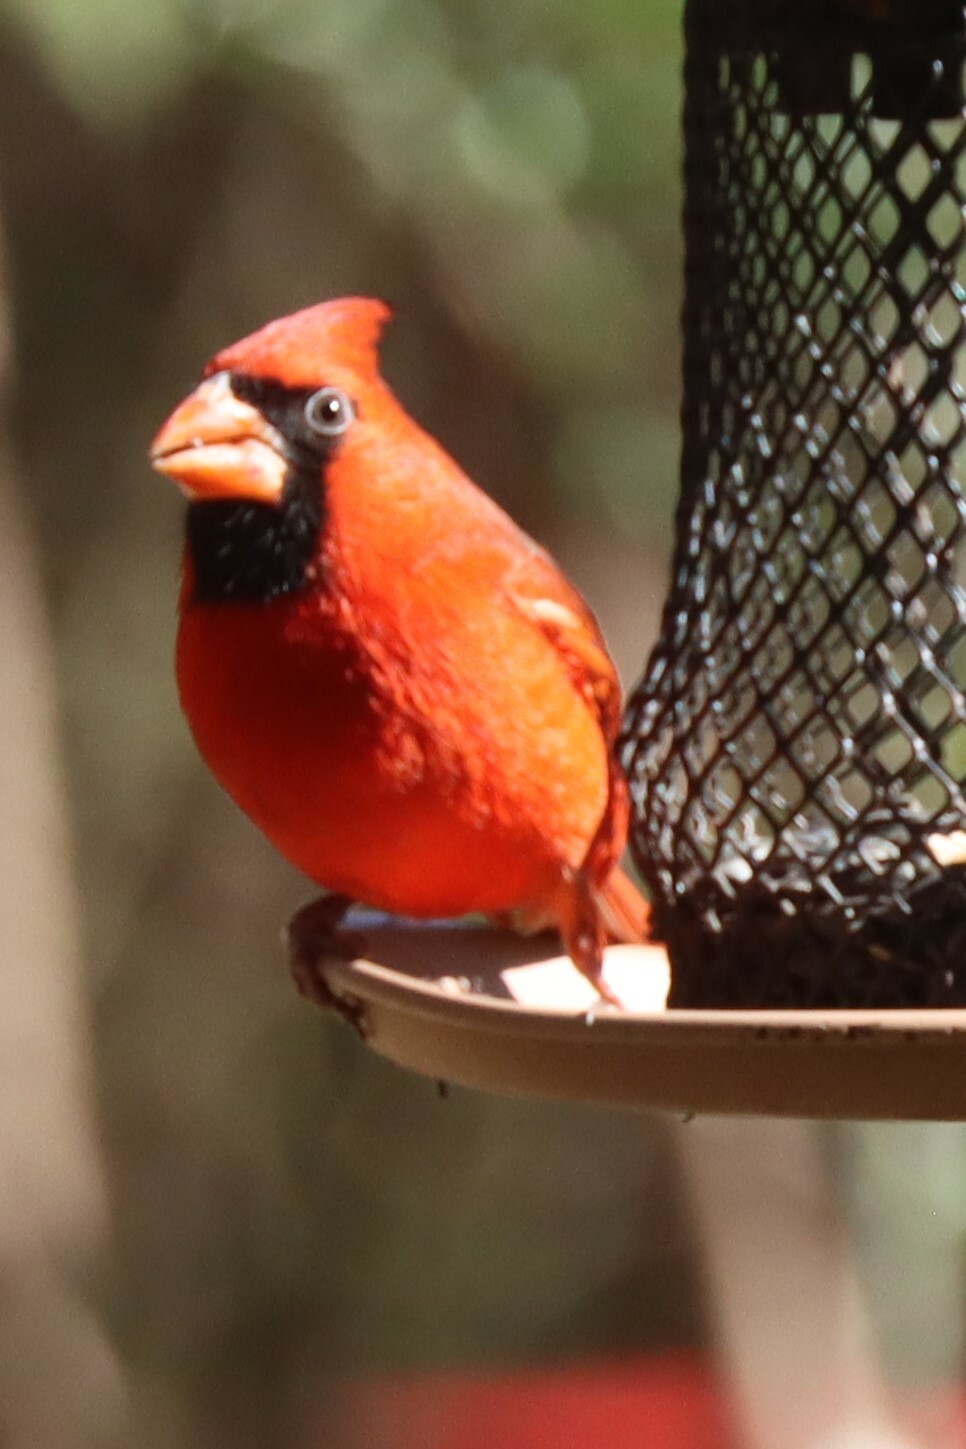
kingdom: Animalia
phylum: Chordata
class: Aves
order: Passeriformes
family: Cardinalidae
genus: Cardinalis
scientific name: Cardinalis cardinalis
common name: Northern cardinal
